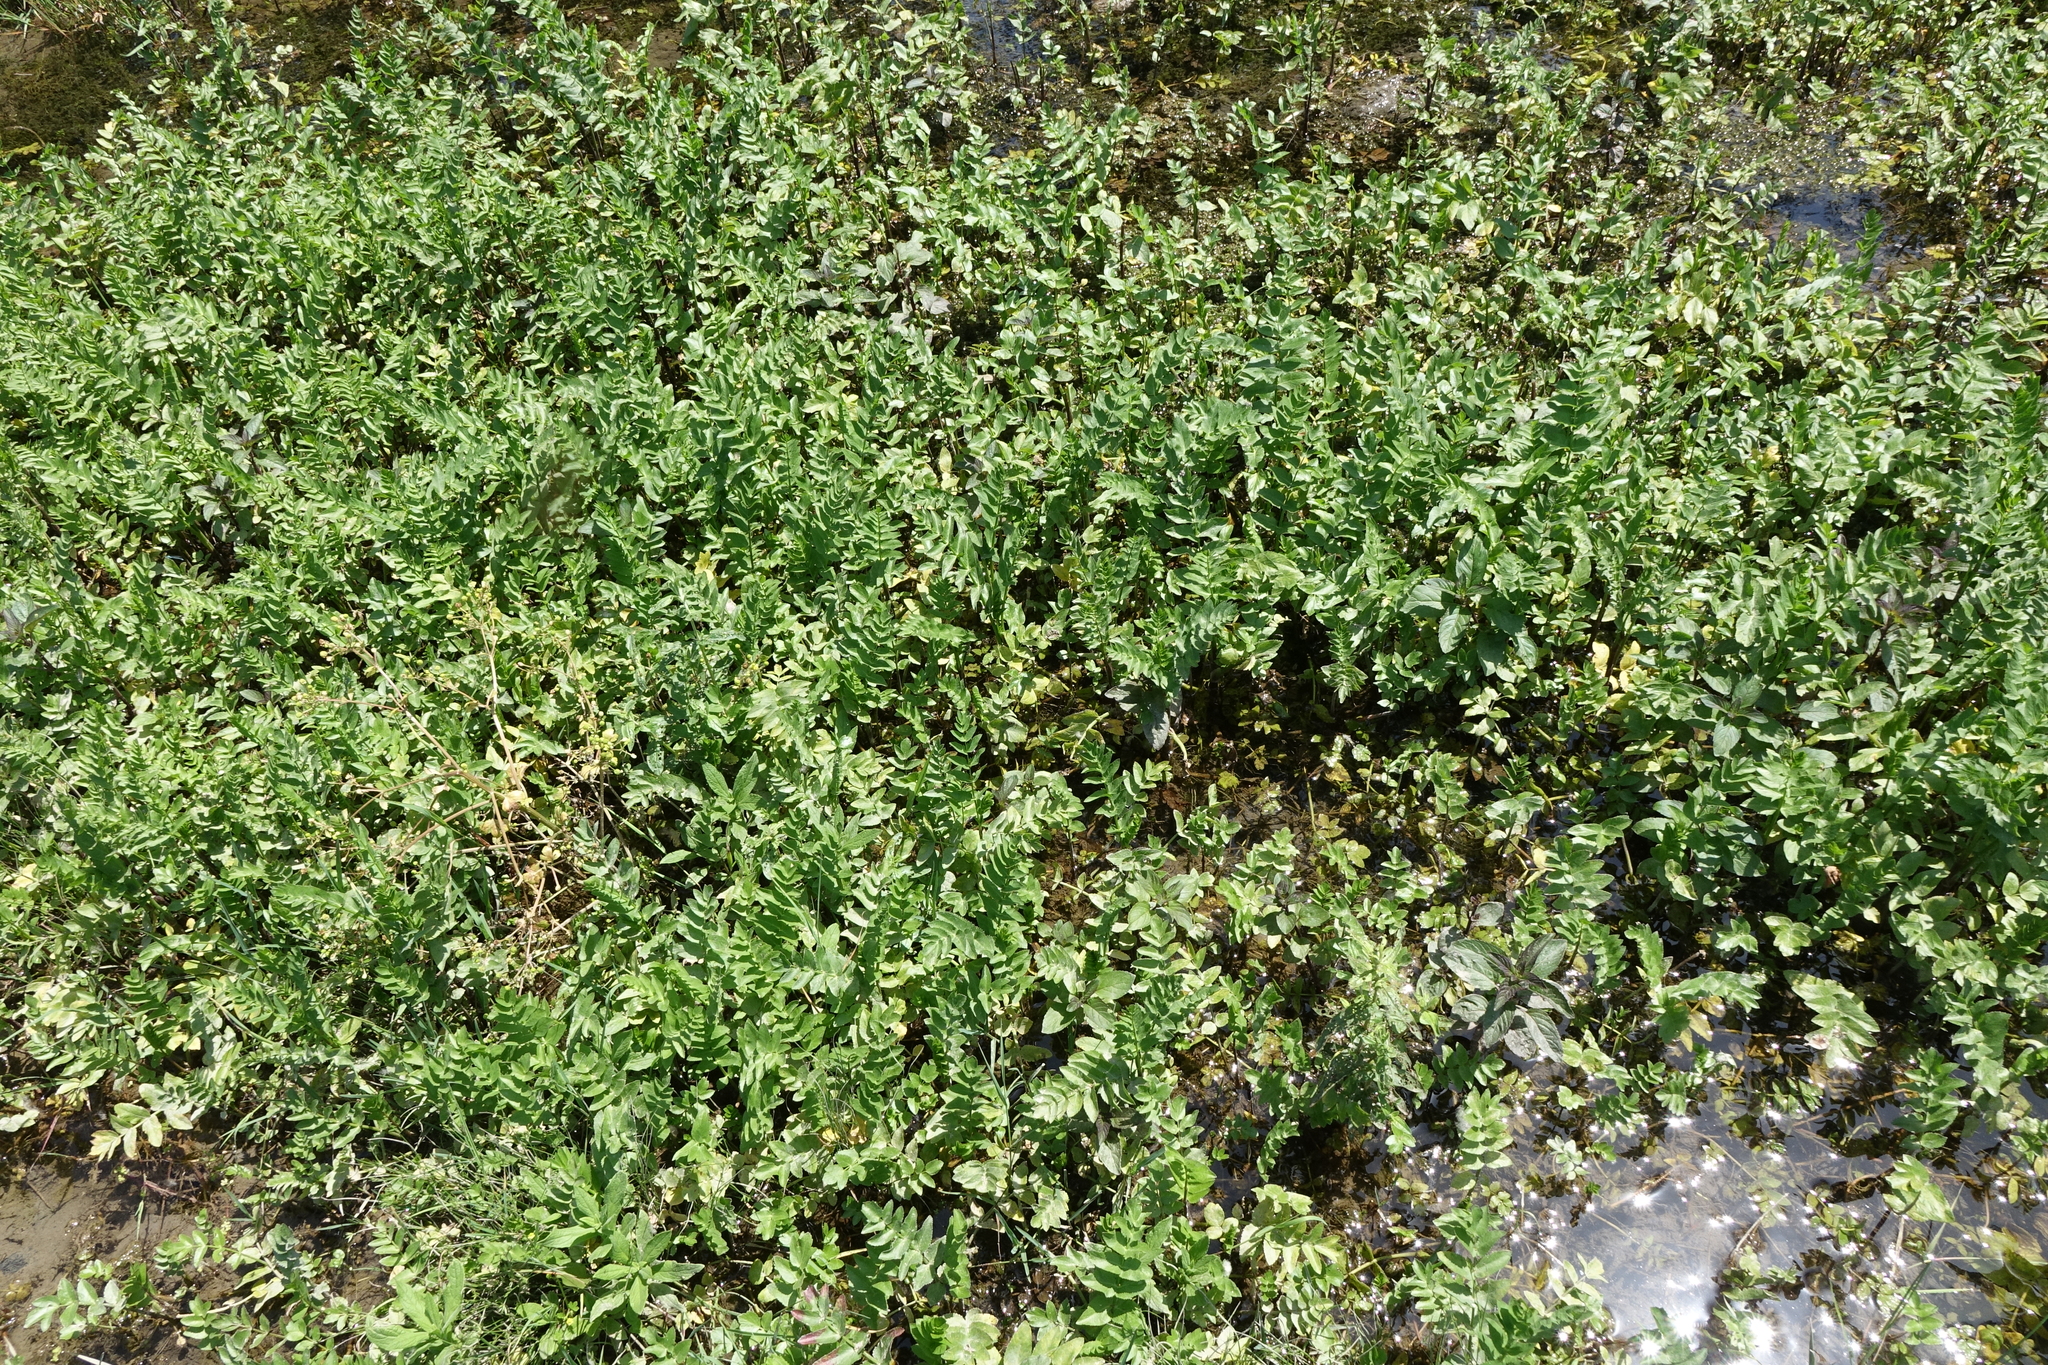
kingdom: Plantae
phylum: Tracheophyta
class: Magnoliopsida
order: Apiales
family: Apiaceae
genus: Sium
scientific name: Sium latifolium
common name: Greater water-parsnip
